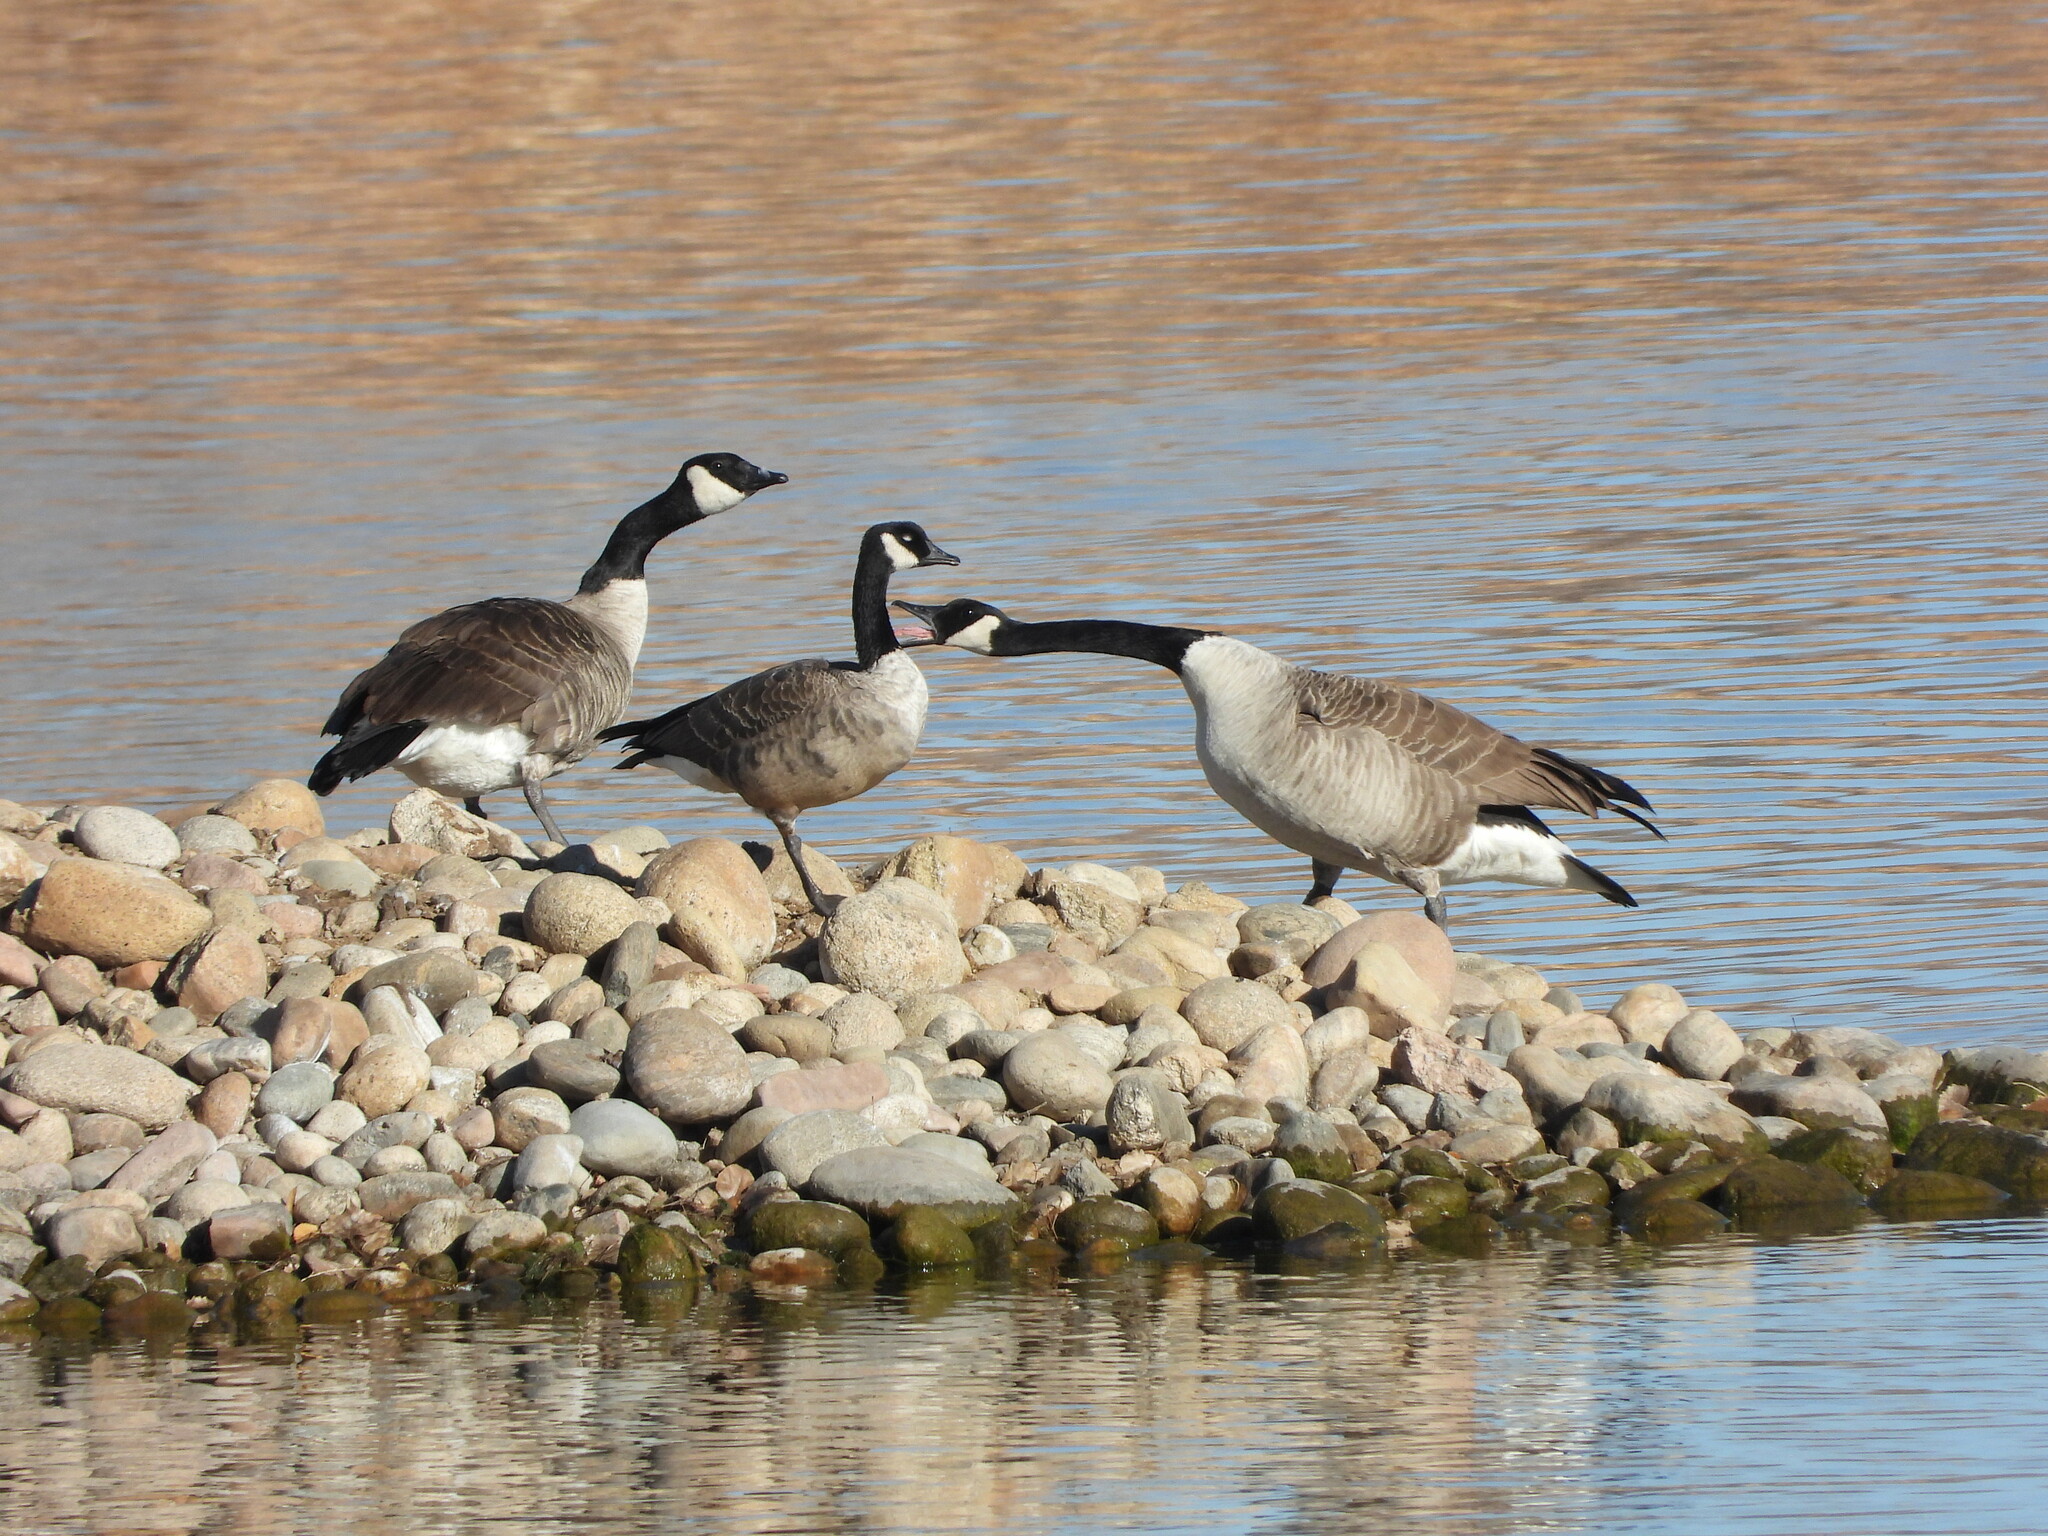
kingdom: Animalia
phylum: Chordata
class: Aves
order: Anseriformes
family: Anatidae
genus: Branta
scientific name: Branta canadensis
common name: Canada goose
